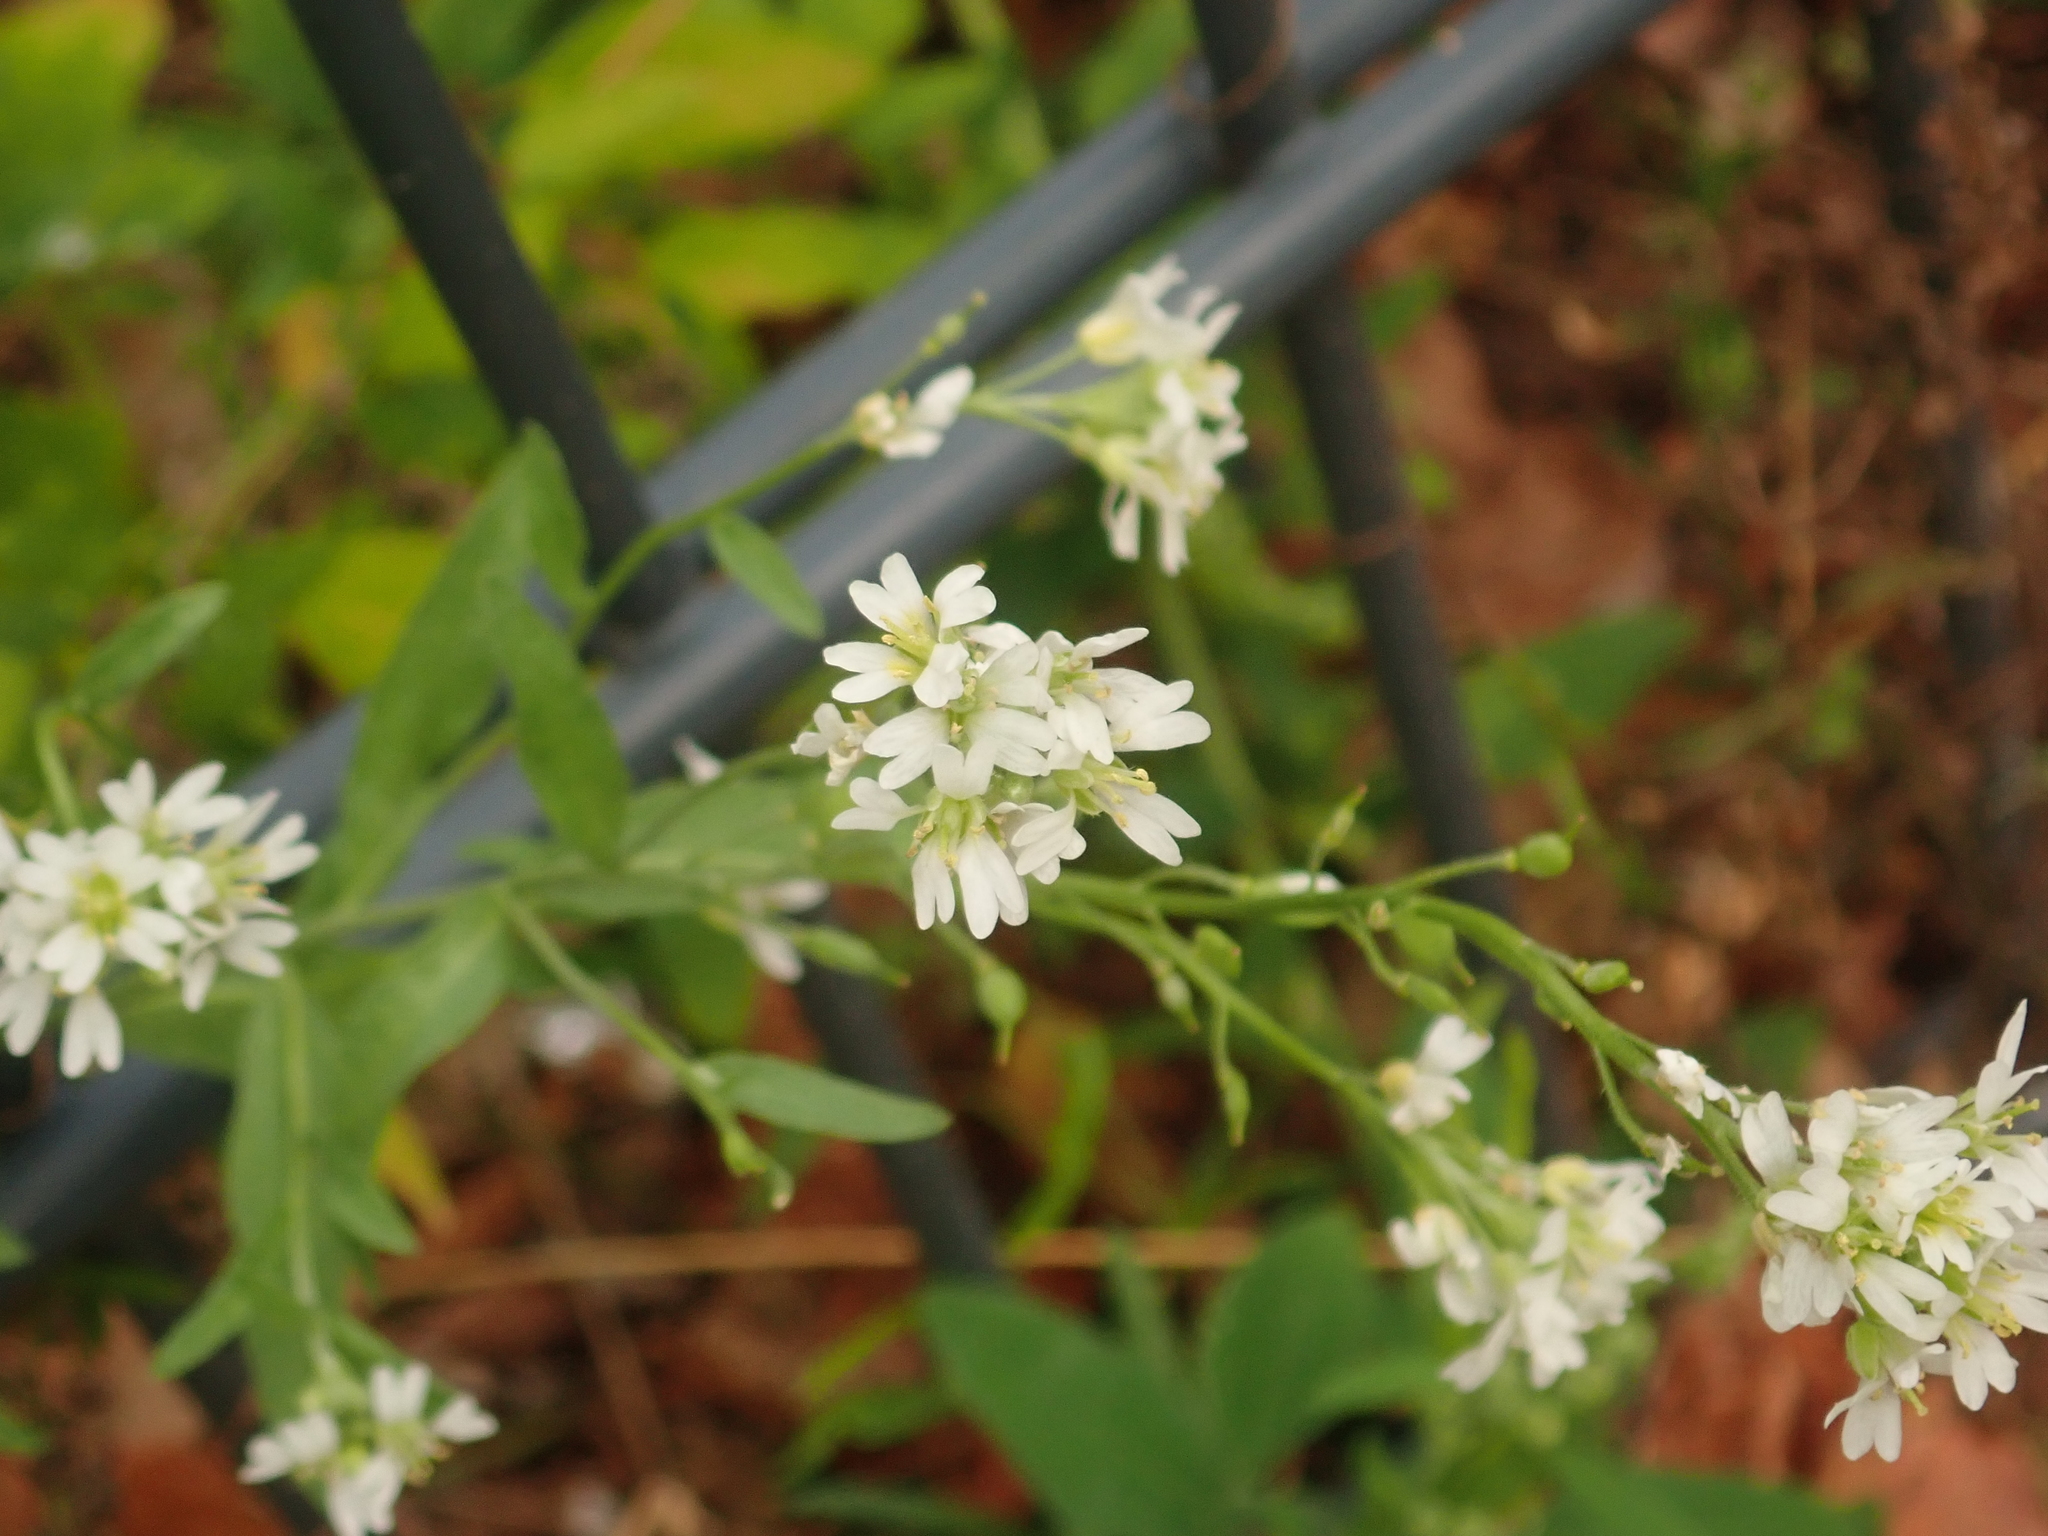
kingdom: Plantae
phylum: Tracheophyta
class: Magnoliopsida
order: Brassicales
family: Brassicaceae
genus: Berteroa
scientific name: Berteroa incana
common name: Hoary alison
